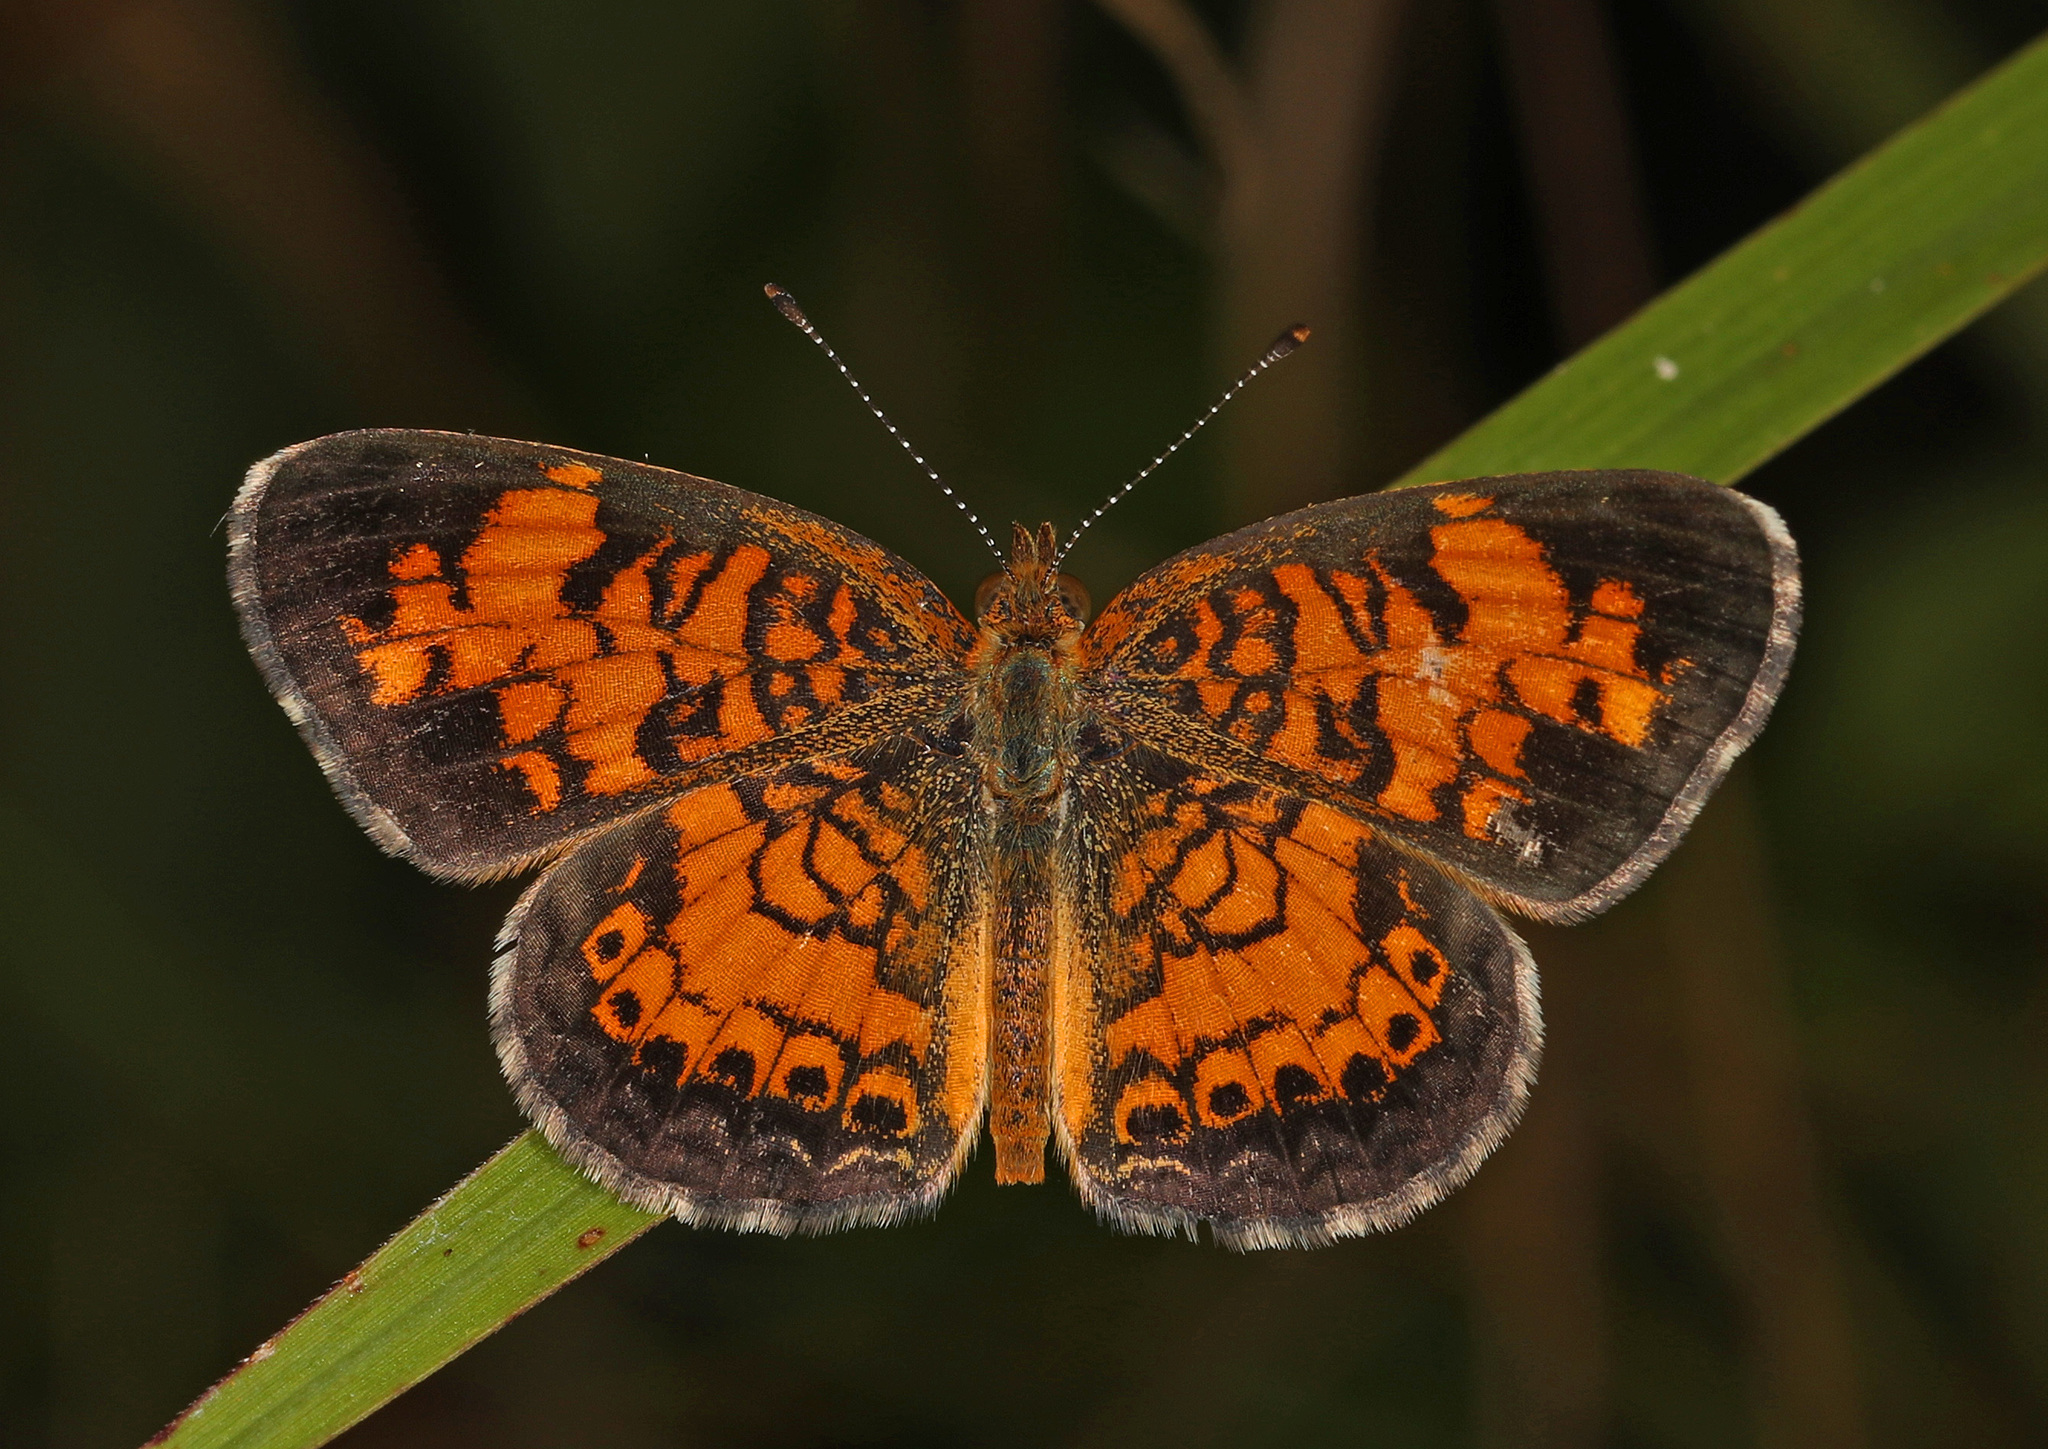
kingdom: Animalia
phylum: Arthropoda
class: Insecta
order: Lepidoptera
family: Nymphalidae
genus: Phyciodes
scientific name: Phyciodes tharos
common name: Pearl crescent
